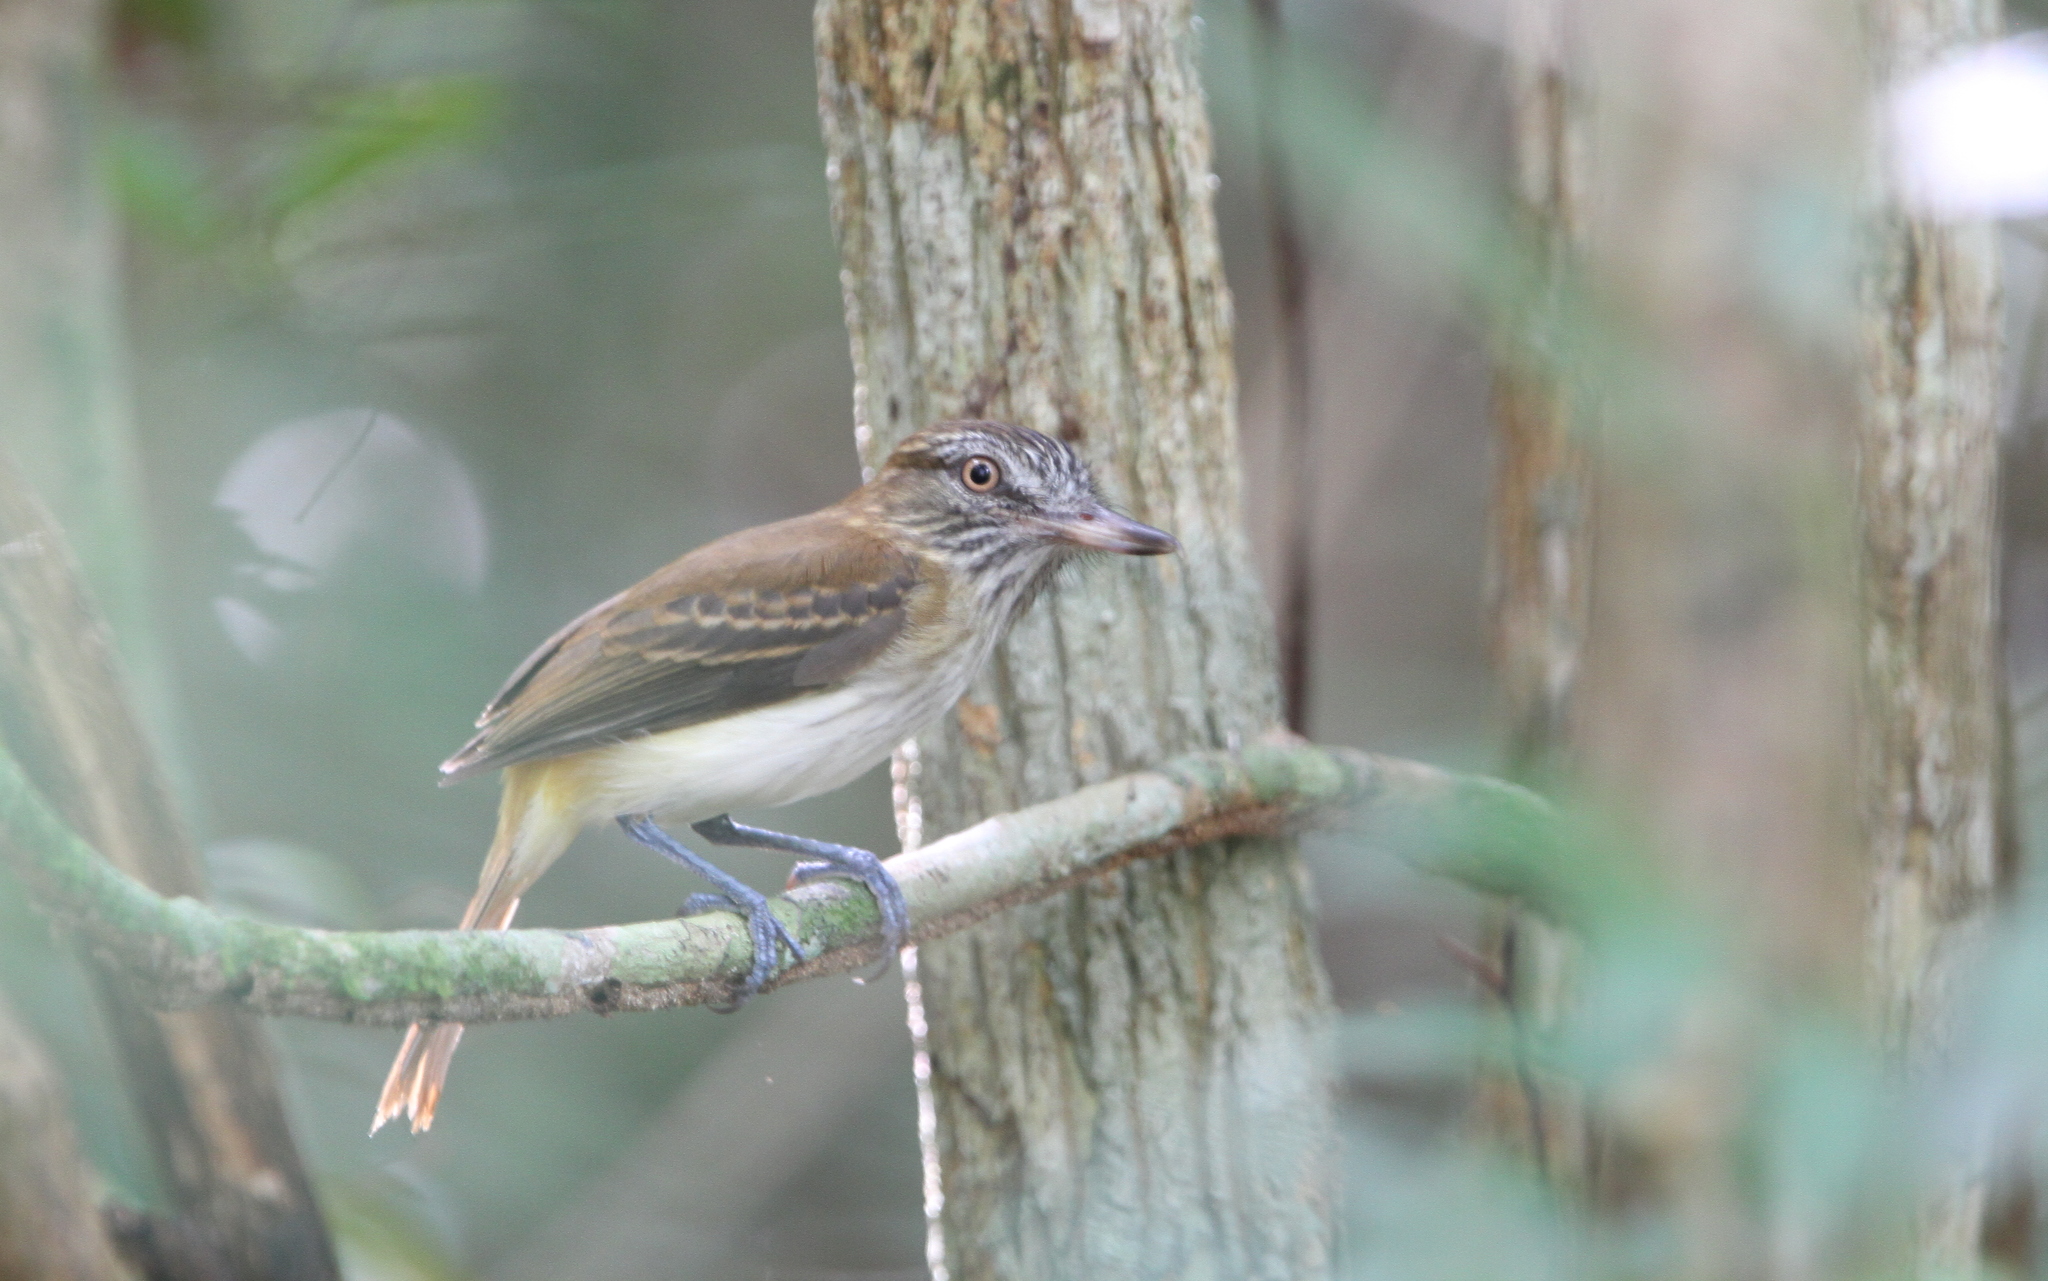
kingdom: Animalia
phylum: Chordata
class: Aves
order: Passeriformes
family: Tyrannidae
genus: Attila
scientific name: Attila spadiceus
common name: Bright-rumped attila
